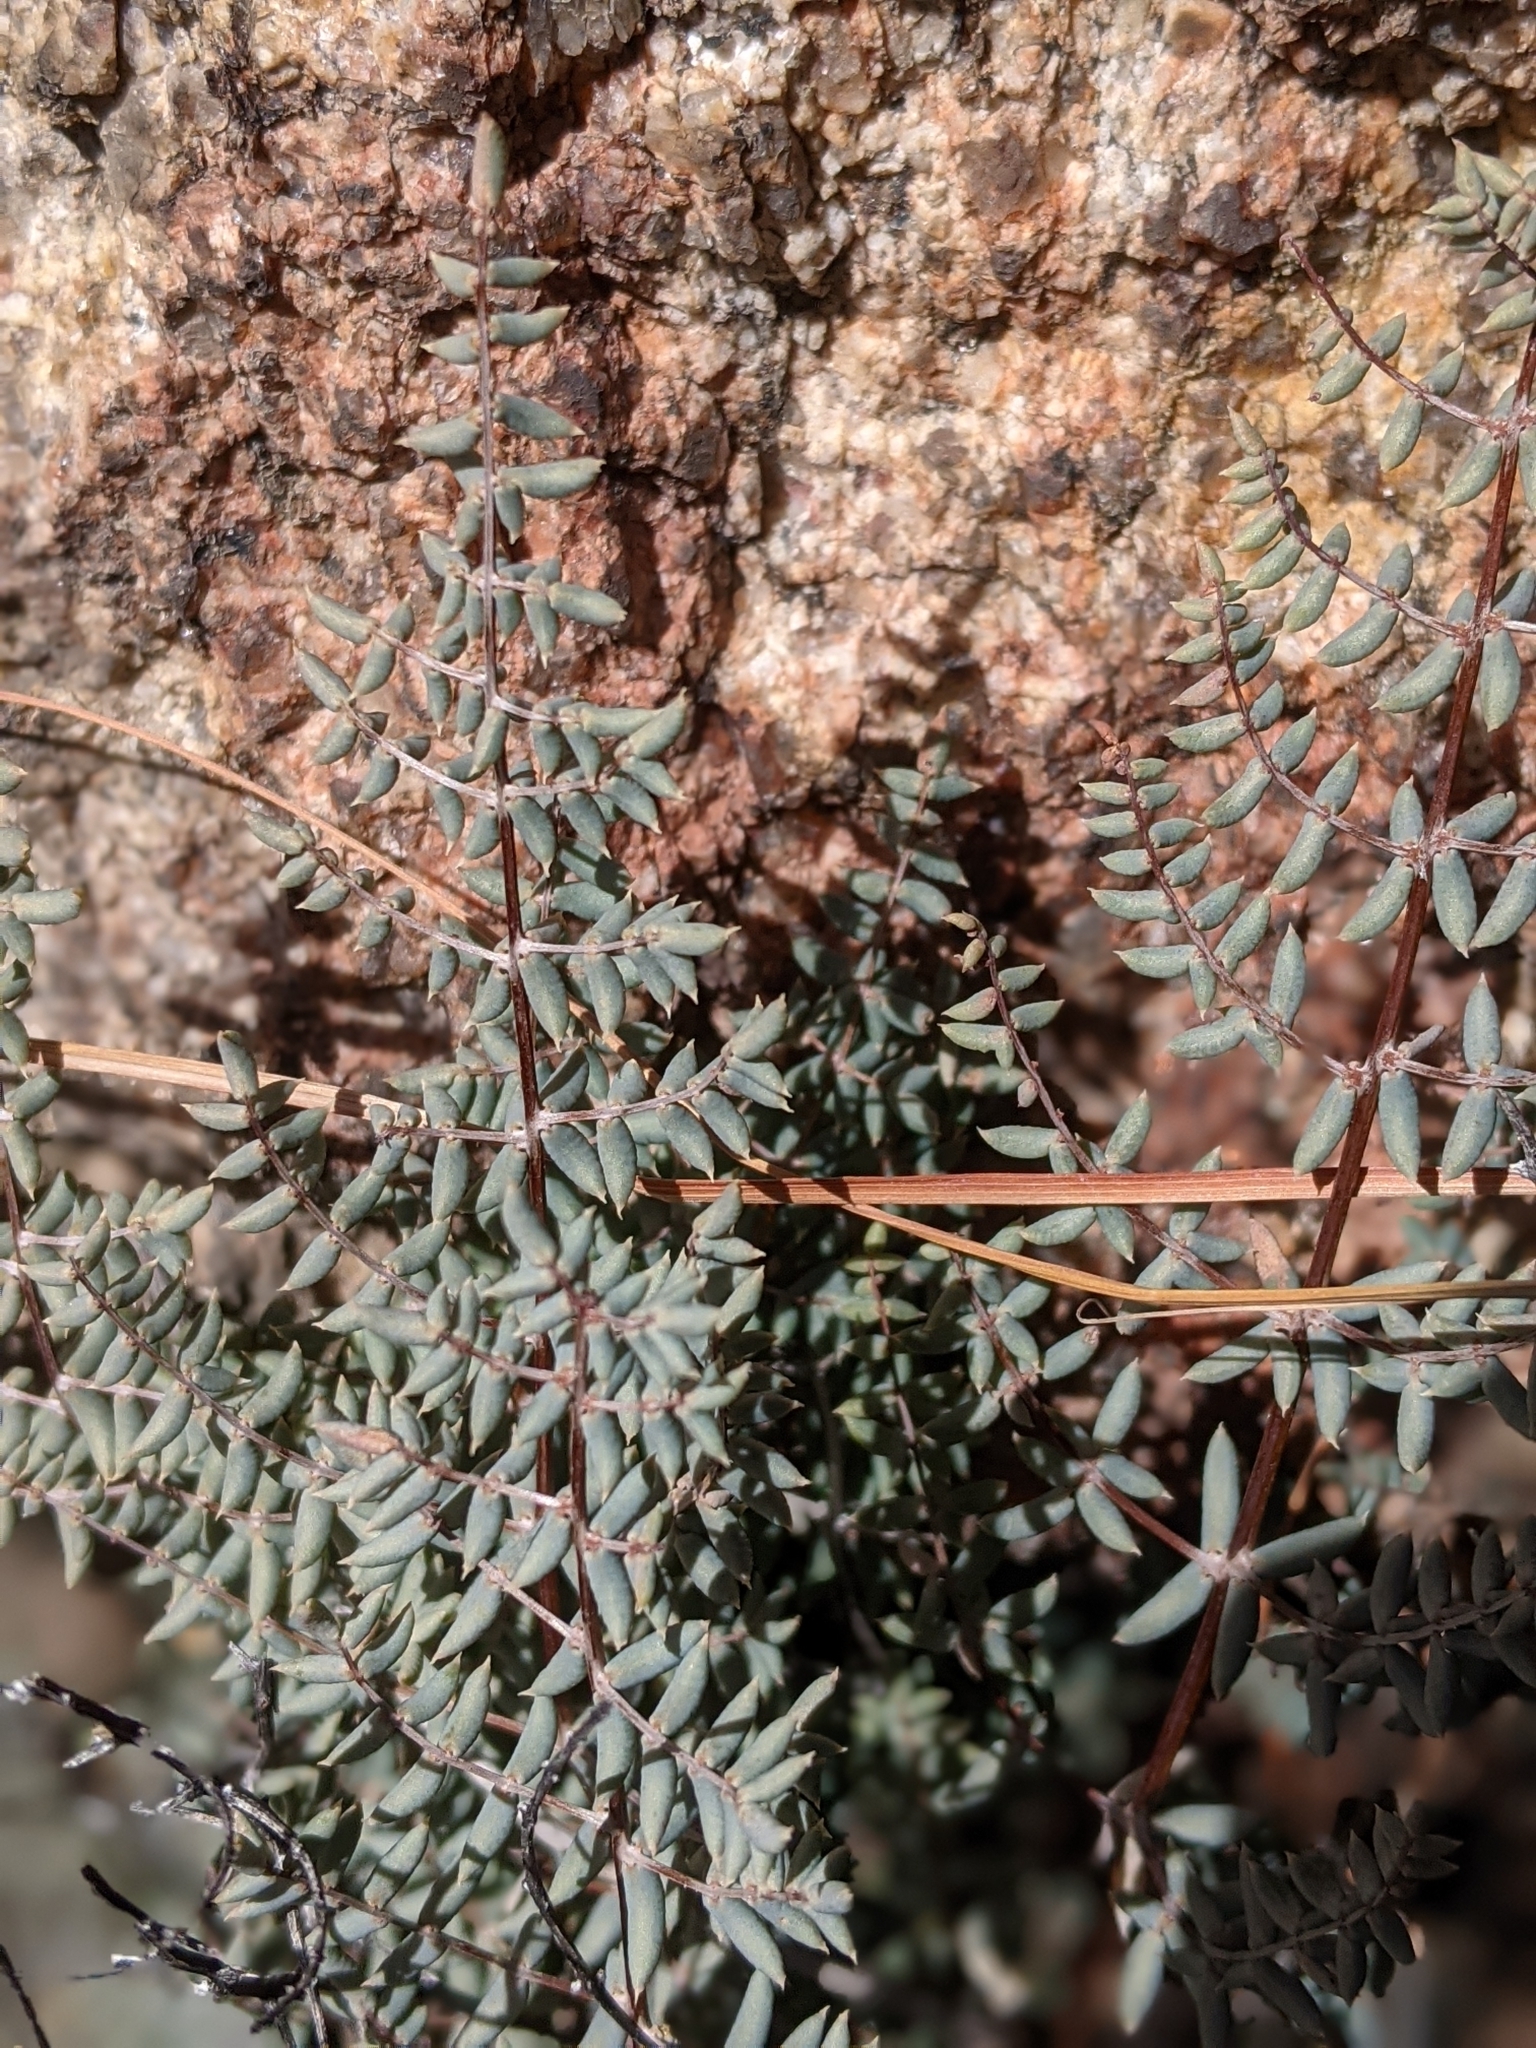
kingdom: Plantae
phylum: Tracheophyta
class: Polypodiopsida
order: Polypodiales
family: Pteridaceae
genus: Pellaea
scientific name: Pellaea truncata
